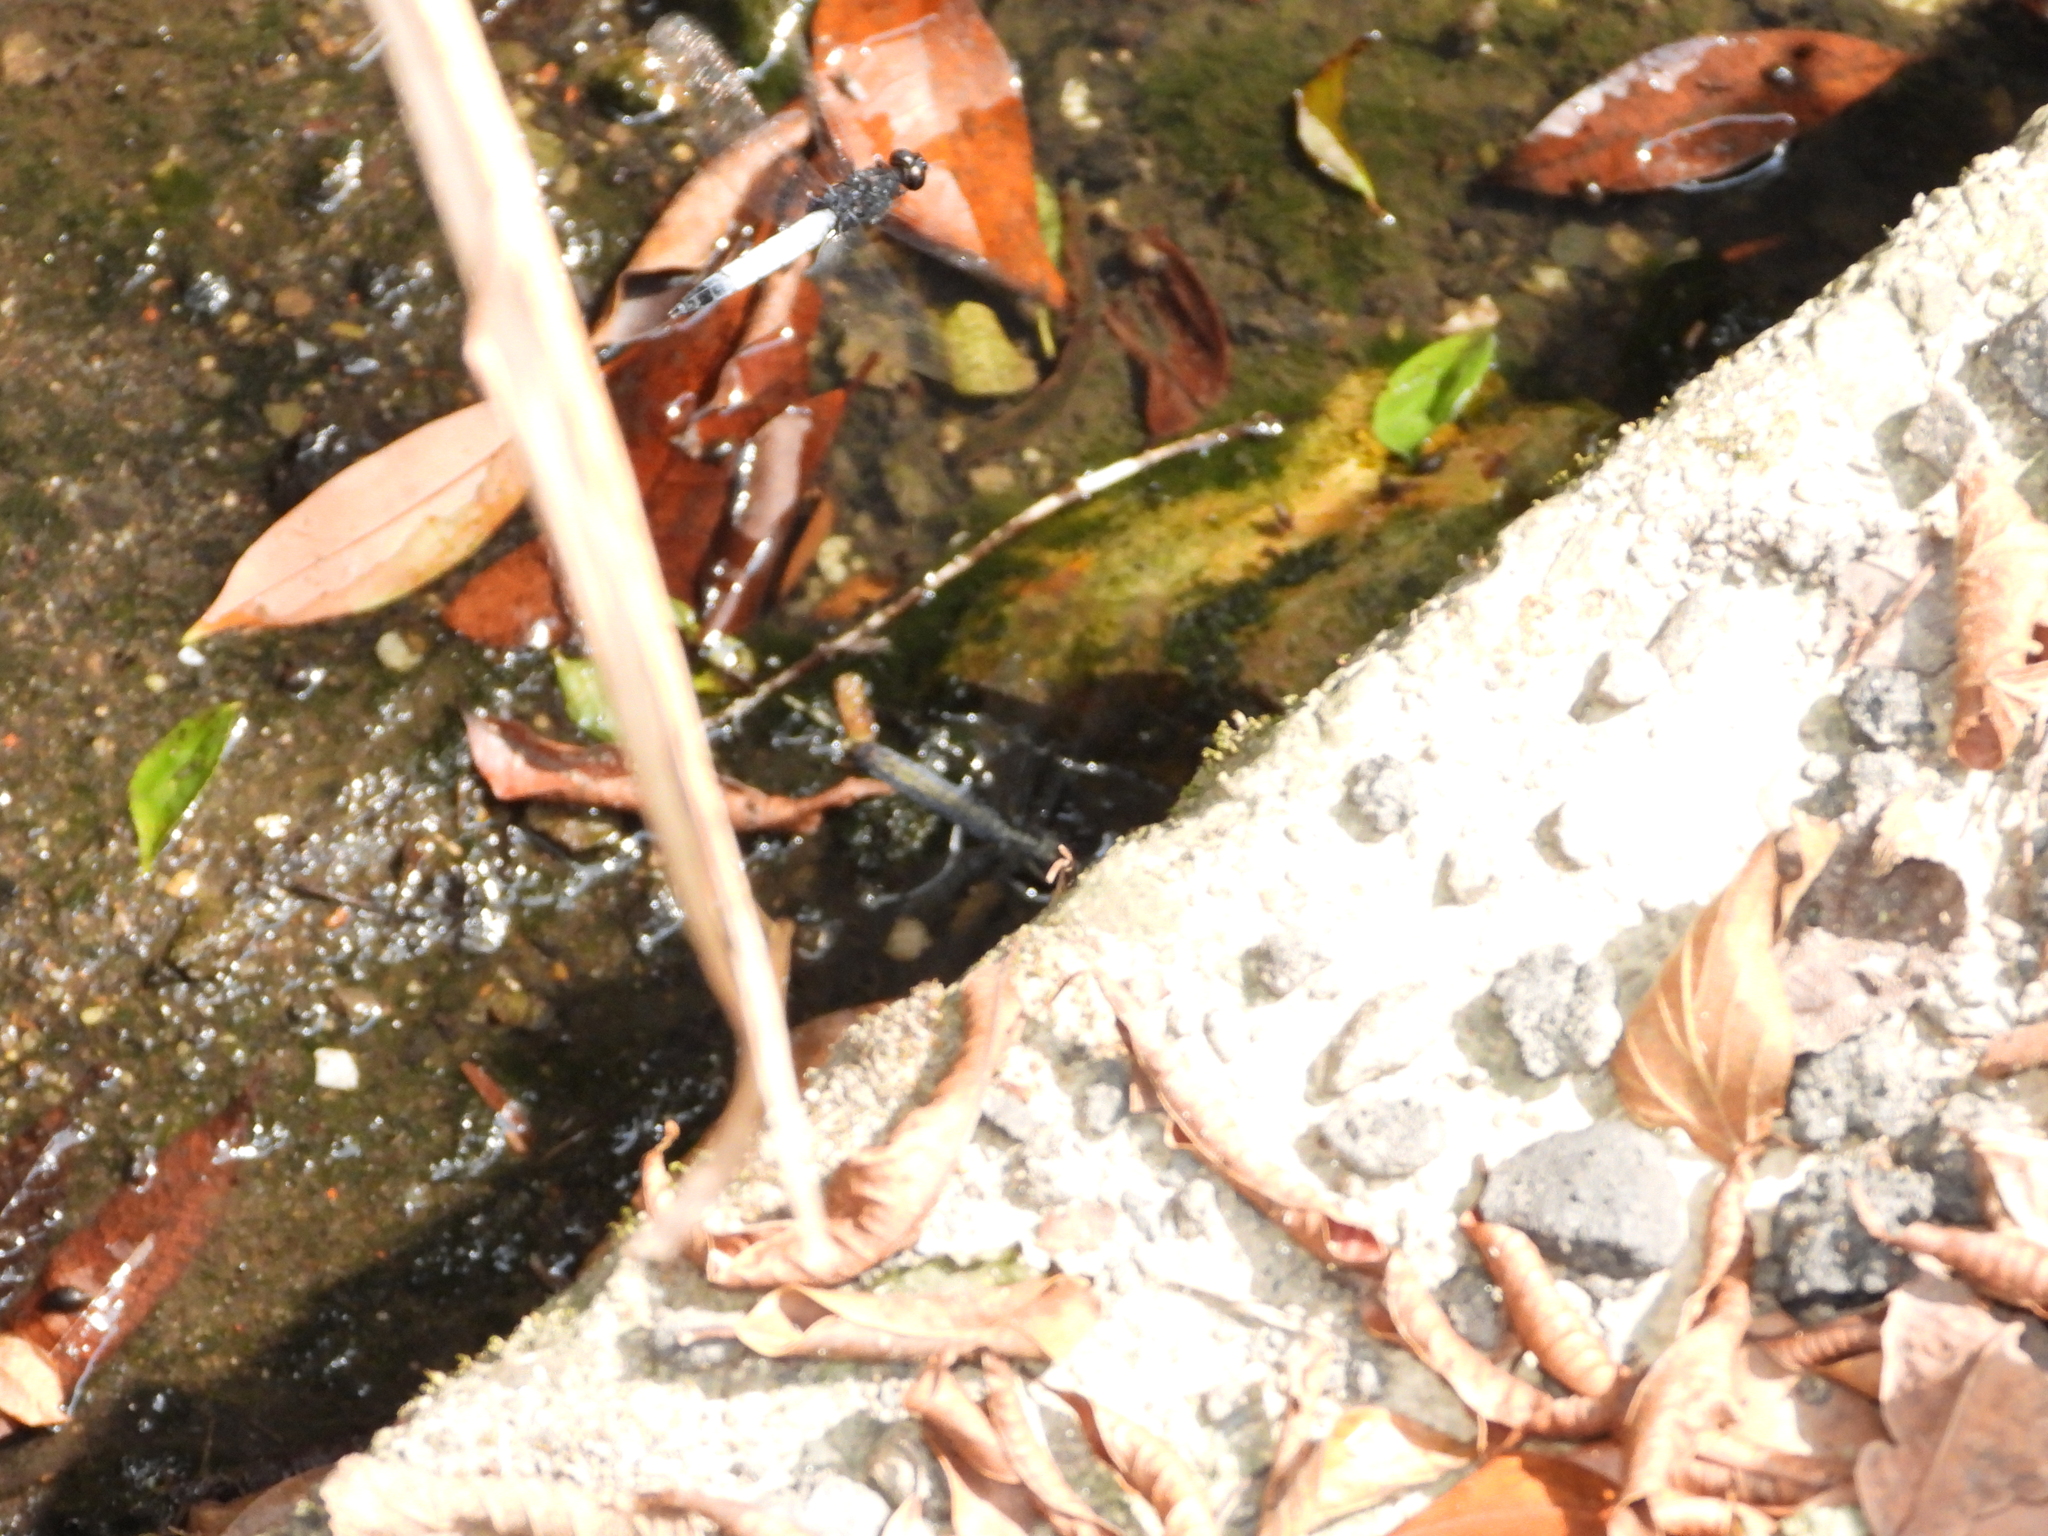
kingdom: Animalia
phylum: Arthropoda
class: Insecta
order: Odonata
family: Libellulidae
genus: Orthetrum
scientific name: Orthetrum triangulare
